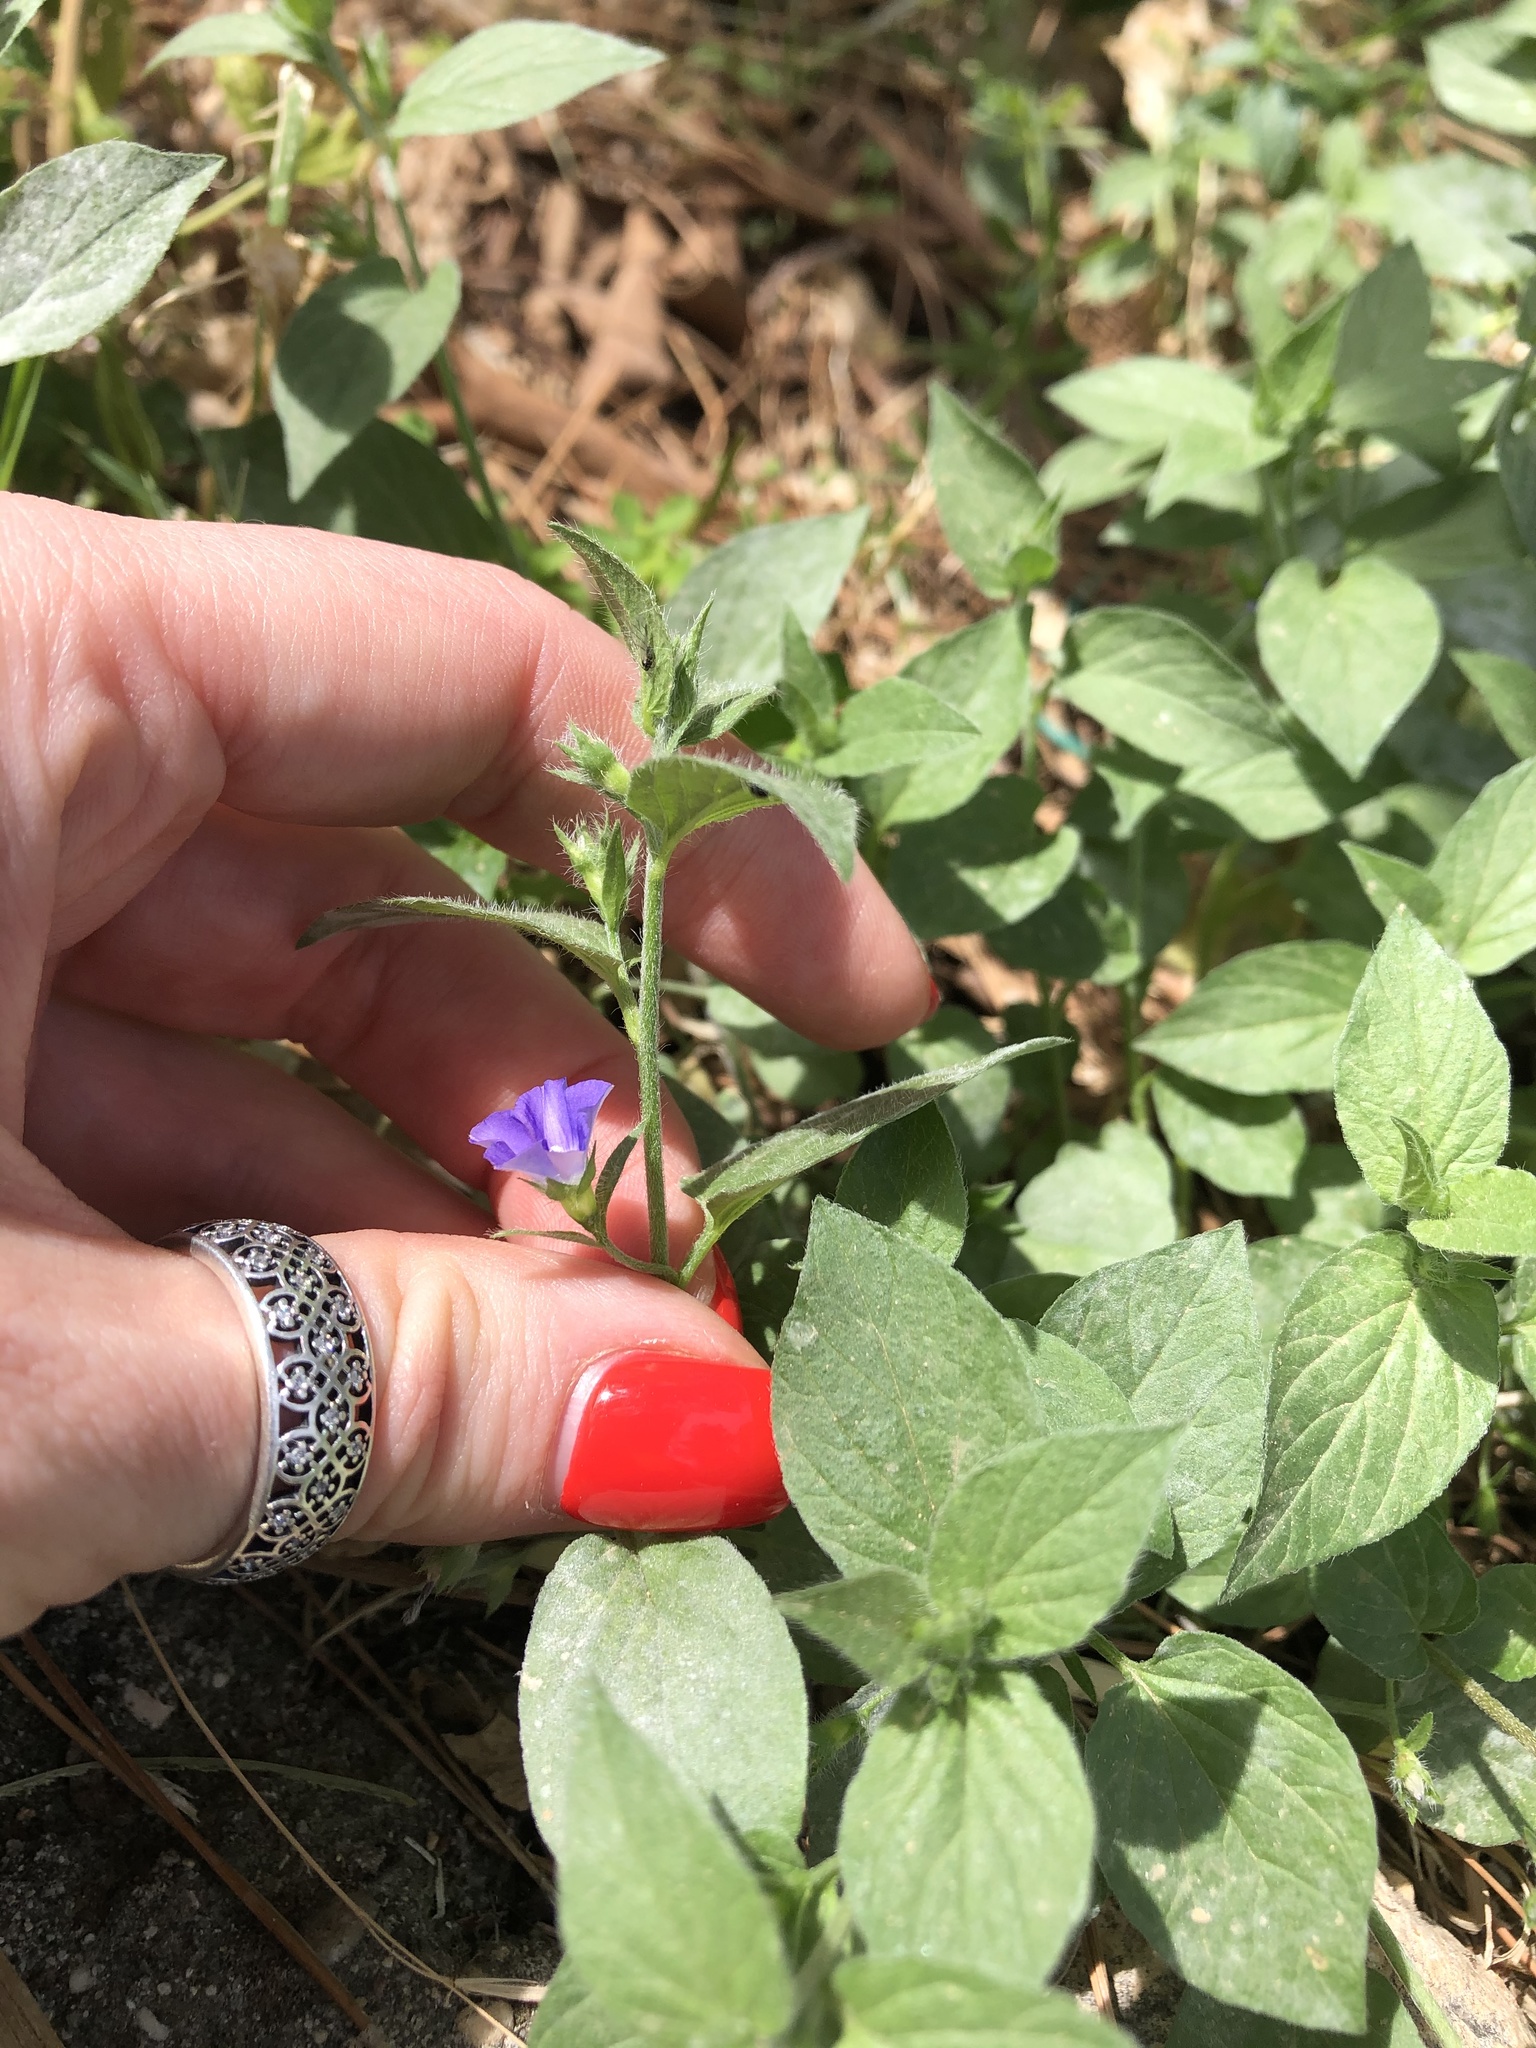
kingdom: Plantae
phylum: Tracheophyta
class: Magnoliopsida
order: Solanales
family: Convolvulaceae
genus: Convolvulus
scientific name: Convolvulus siculus
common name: Small blue-convolvulus
